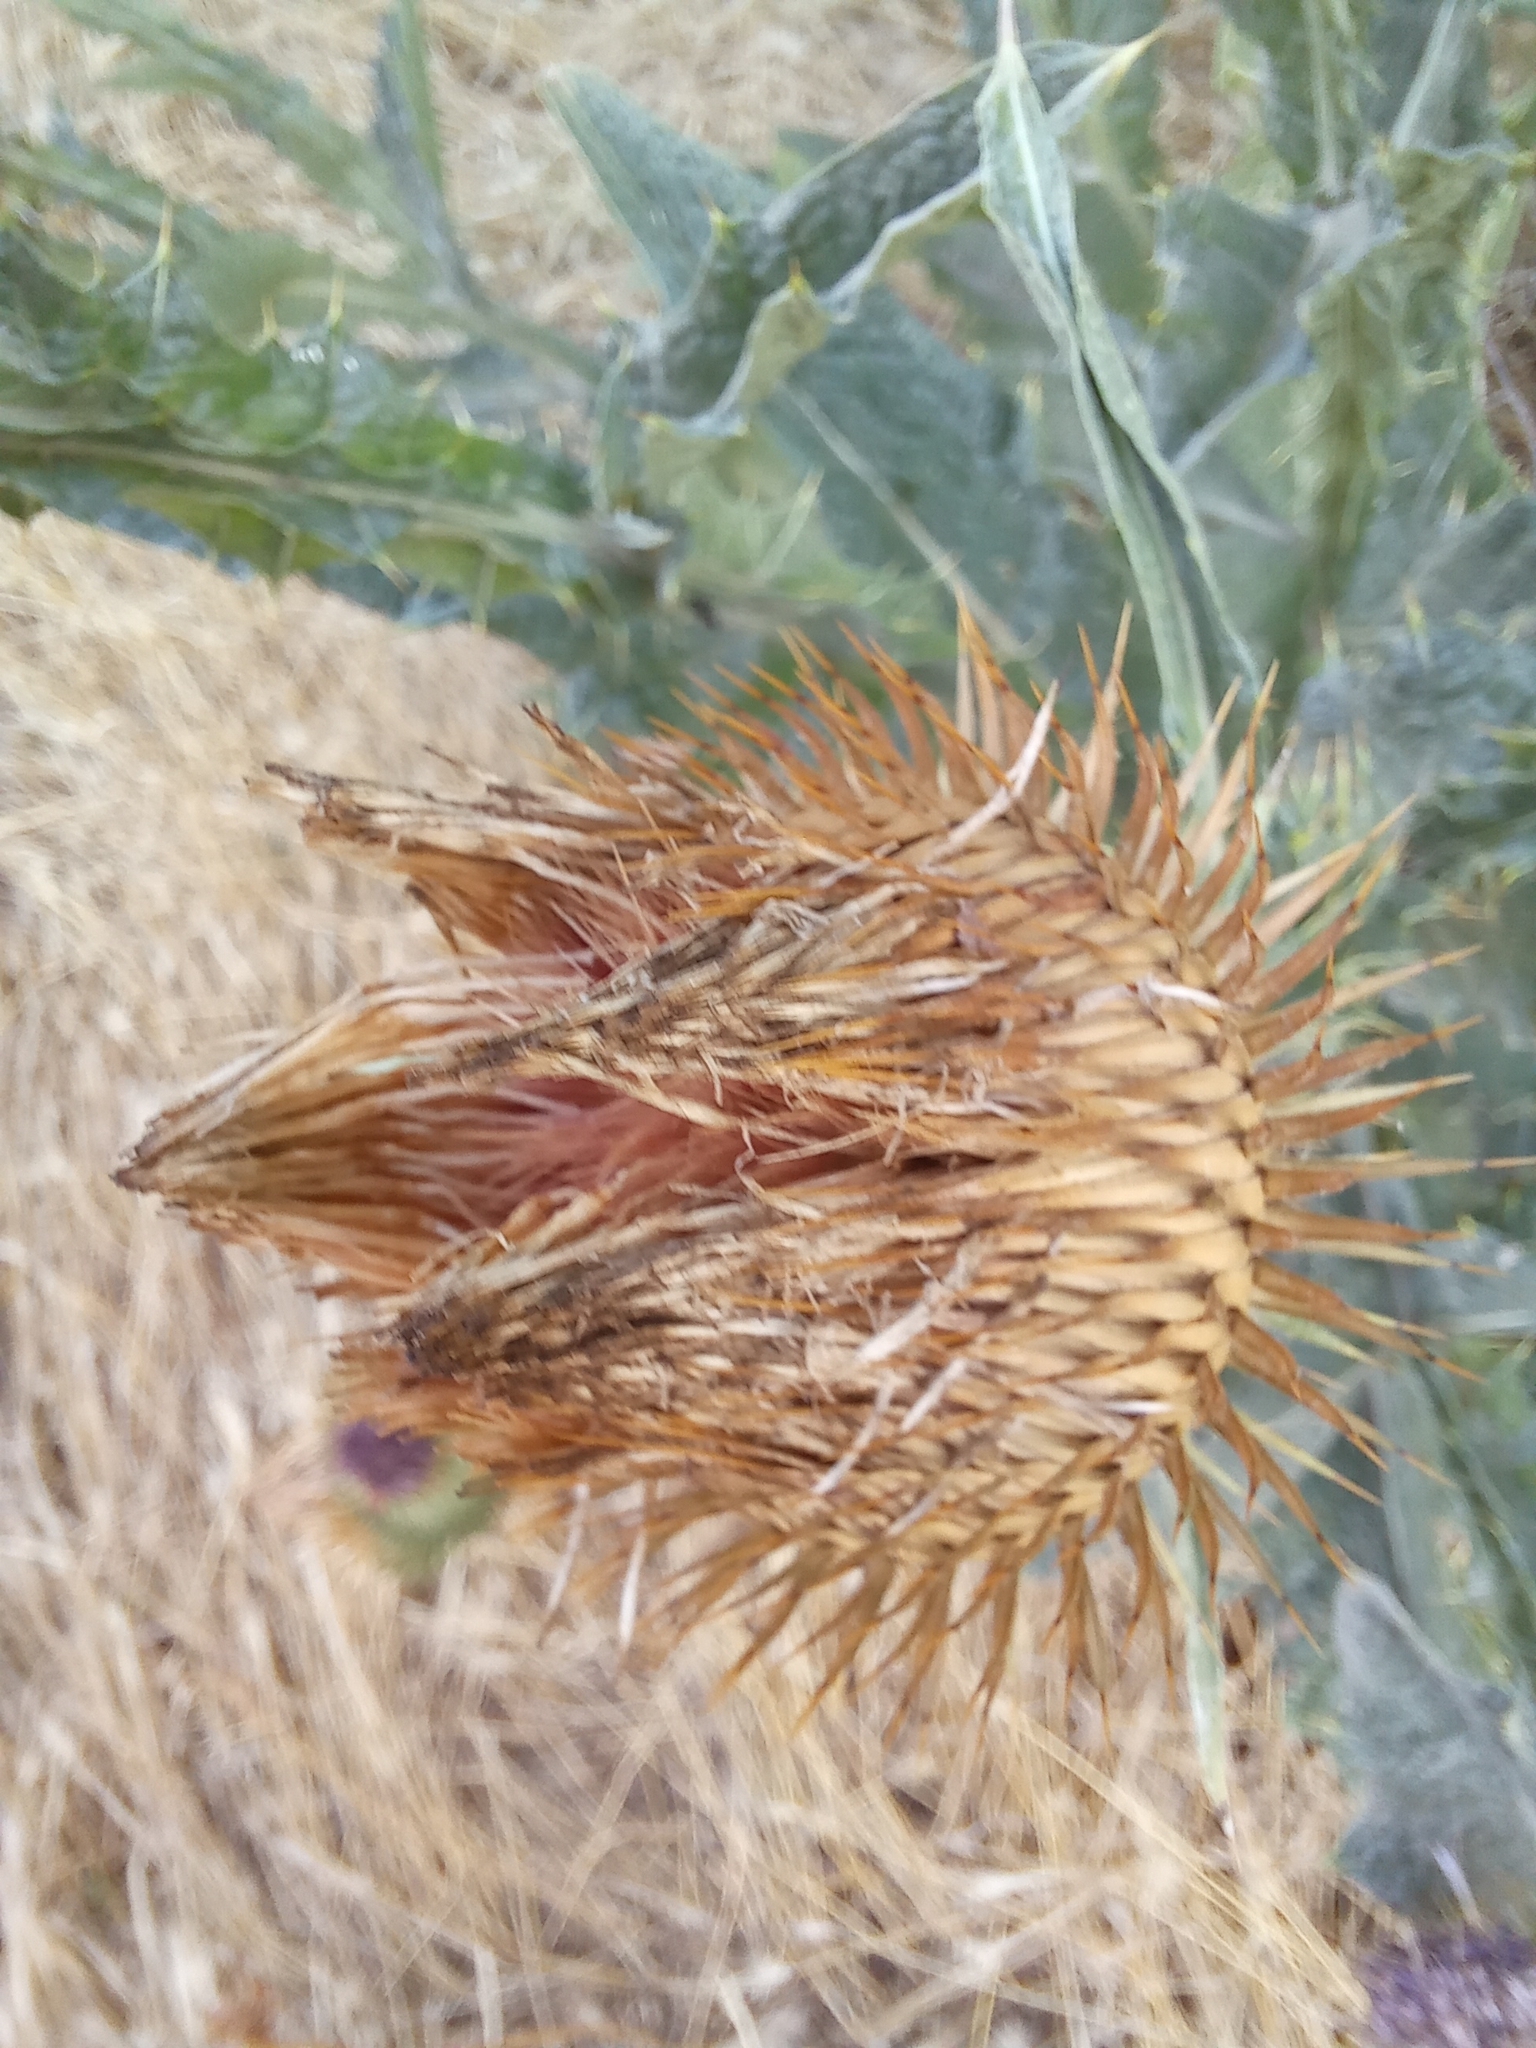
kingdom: Plantae
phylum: Tracheophyta
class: Magnoliopsida
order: Asterales
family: Asteraceae
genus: Onopordum
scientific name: Onopordum acanthium
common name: Scotch thistle
